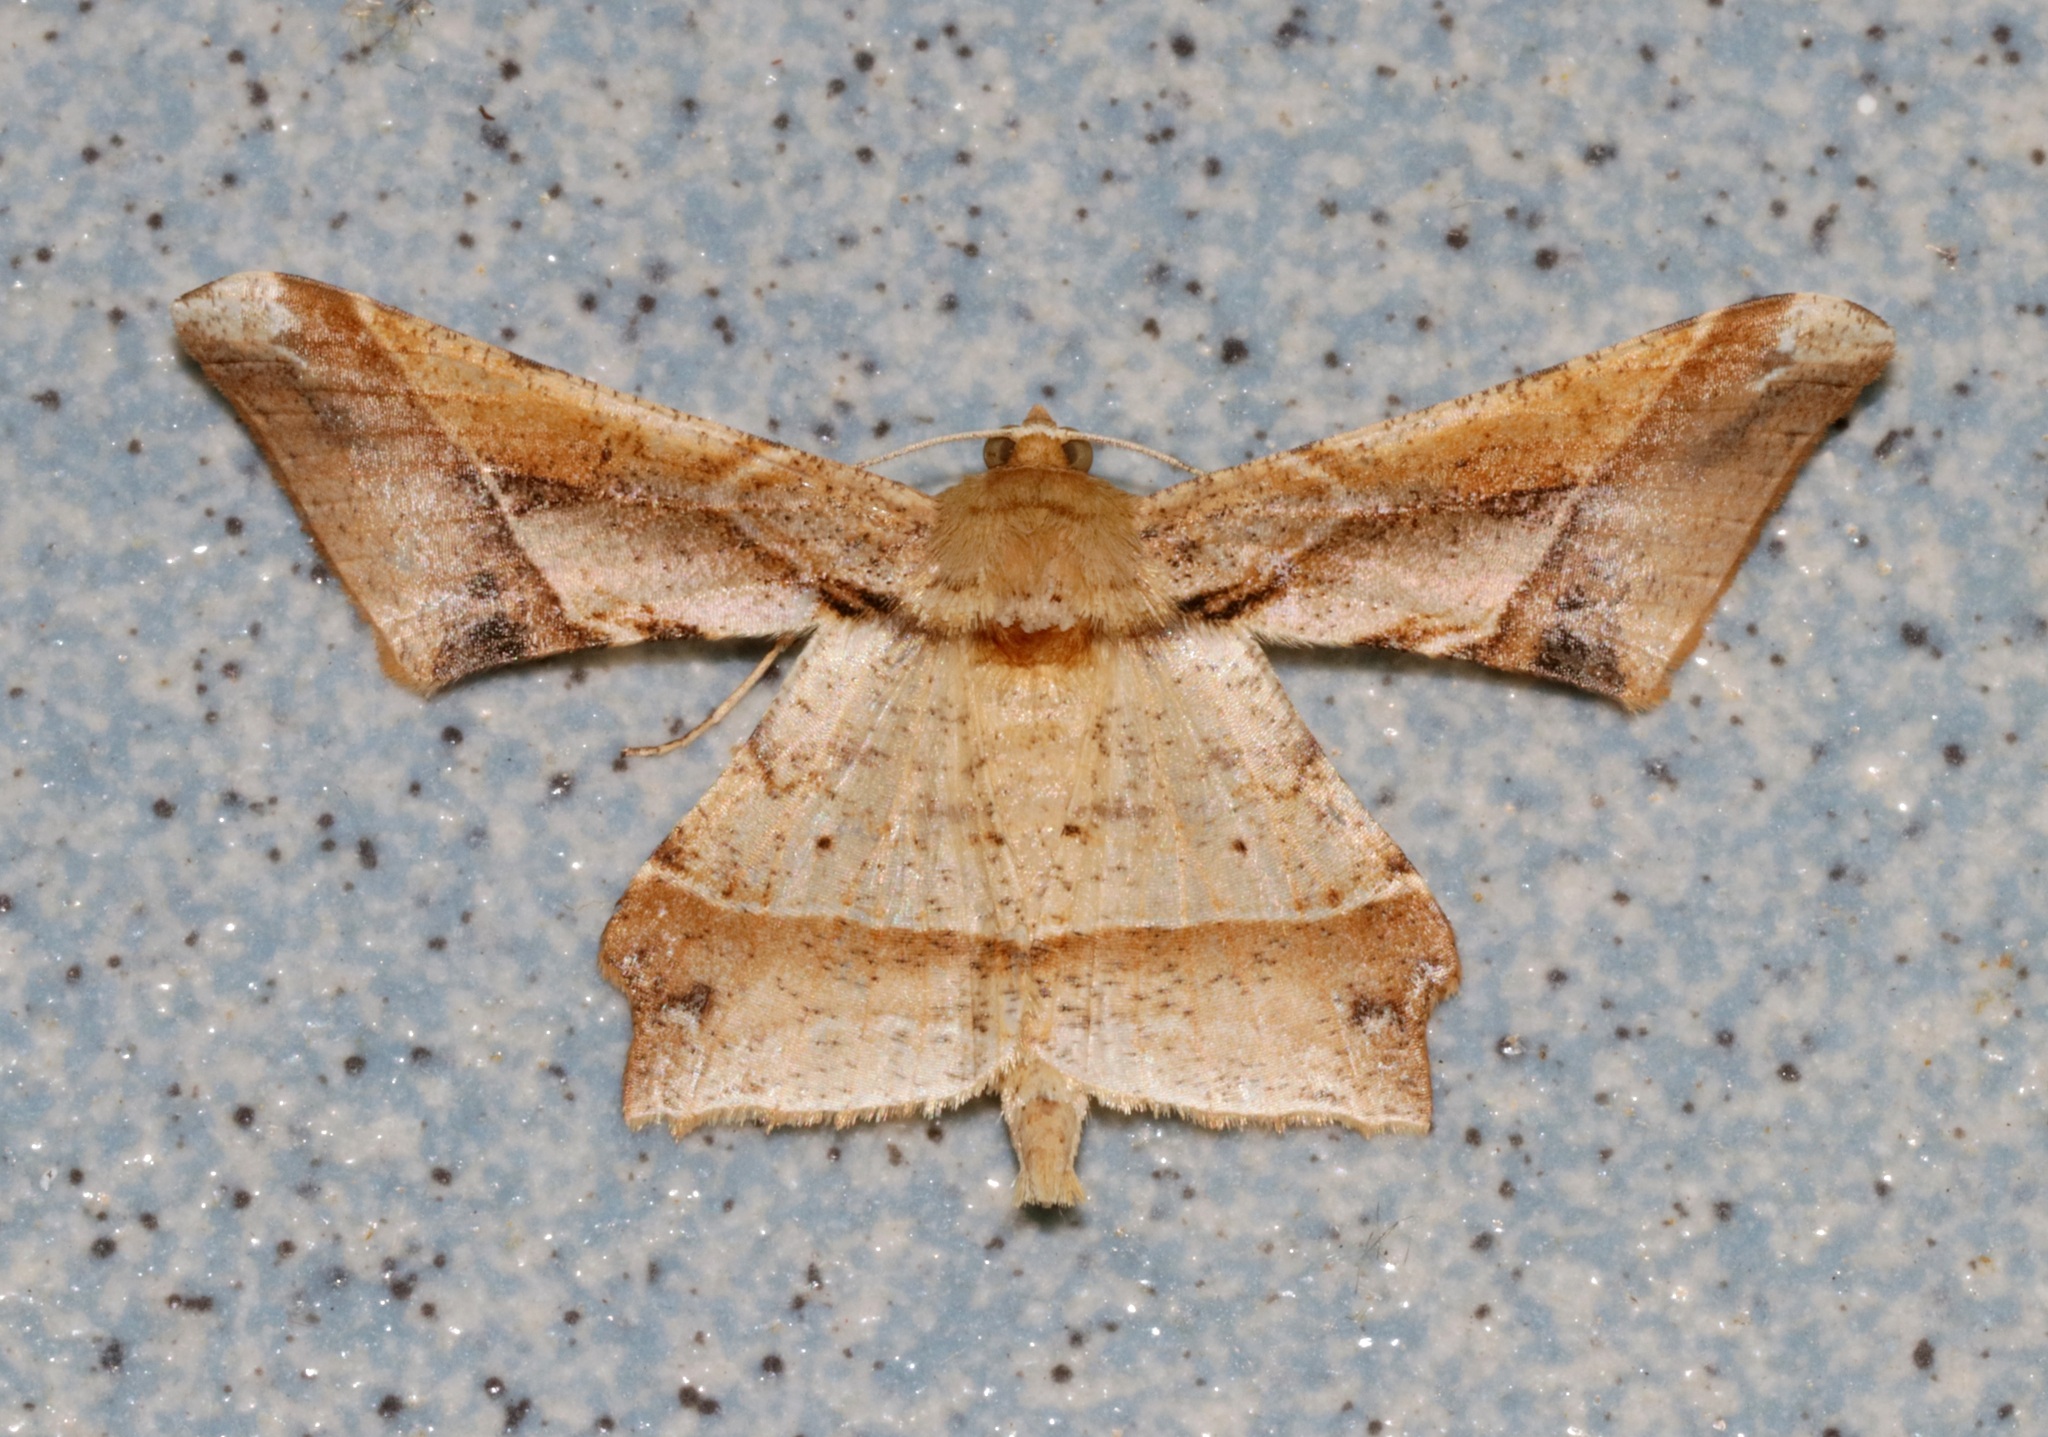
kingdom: Animalia
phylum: Arthropoda
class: Insecta
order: Lepidoptera
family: Geometridae
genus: Krananda
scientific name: Krananda latimarginaria
